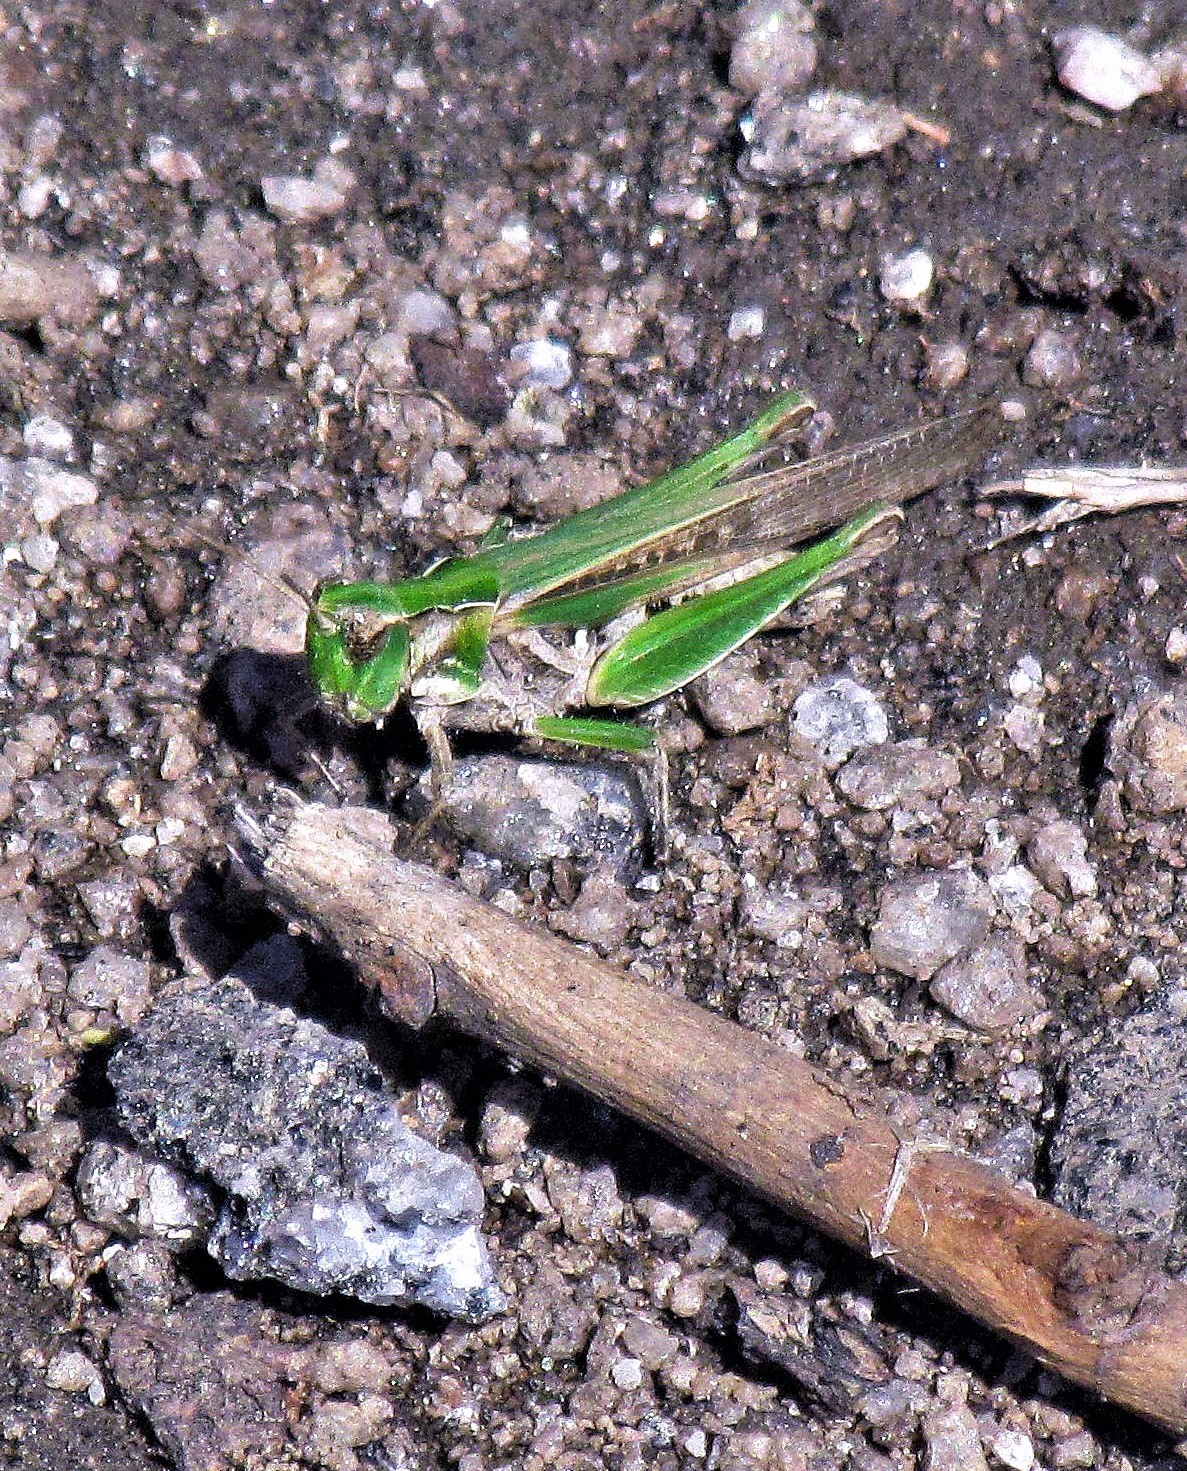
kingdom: Animalia
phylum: Arthropoda
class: Insecta
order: Orthoptera
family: Acrididae
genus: Orphulella
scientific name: Orphulella punctata
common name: Slant-faced grasshopper
